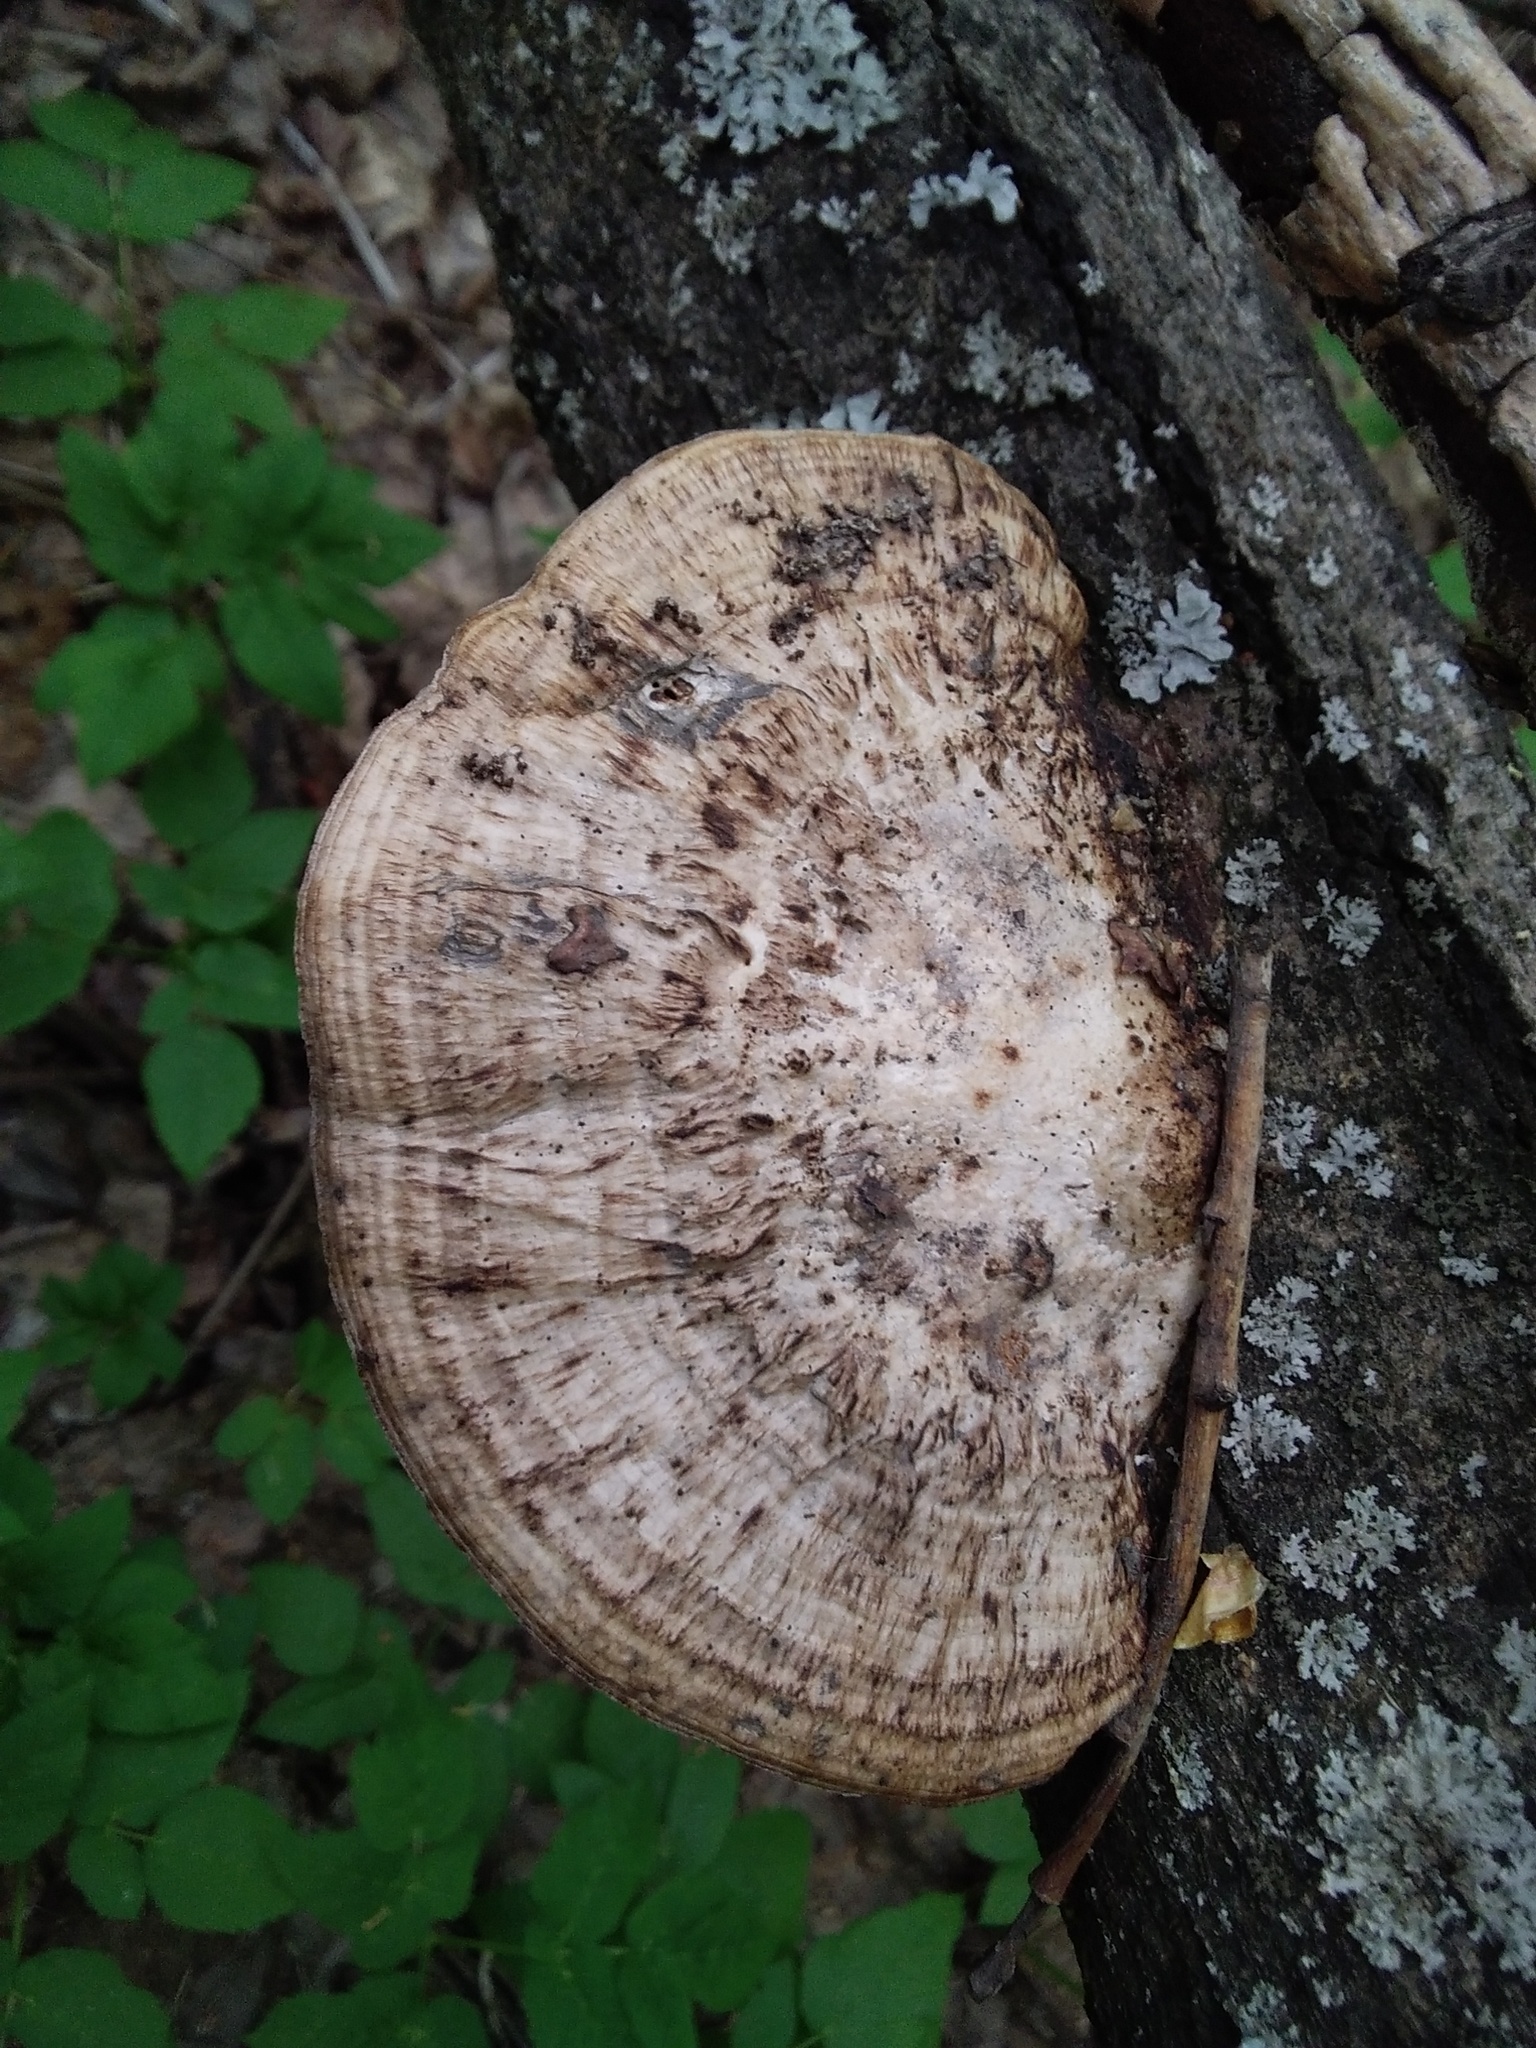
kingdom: Fungi
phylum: Basidiomycota
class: Agaricomycetes
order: Polyporales
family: Polyporaceae
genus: Daedaleopsis
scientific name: Daedaleopsis confragosa
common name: Blushing bracket
